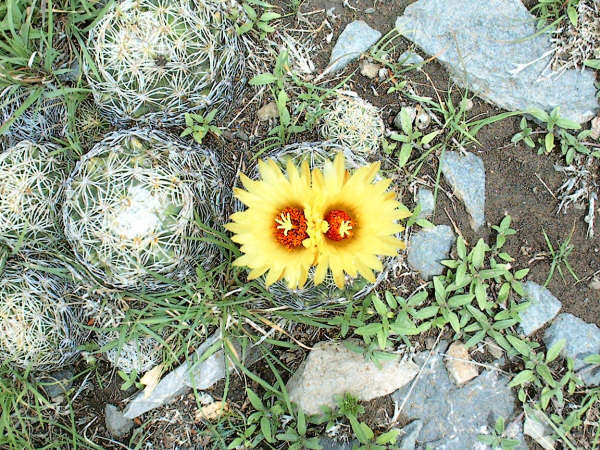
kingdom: Plantae
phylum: Tracheophyta
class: Magnoliopsida
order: Caryophyllales
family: Cactaceae
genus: Coryphantha
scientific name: Coryphantha pallida
